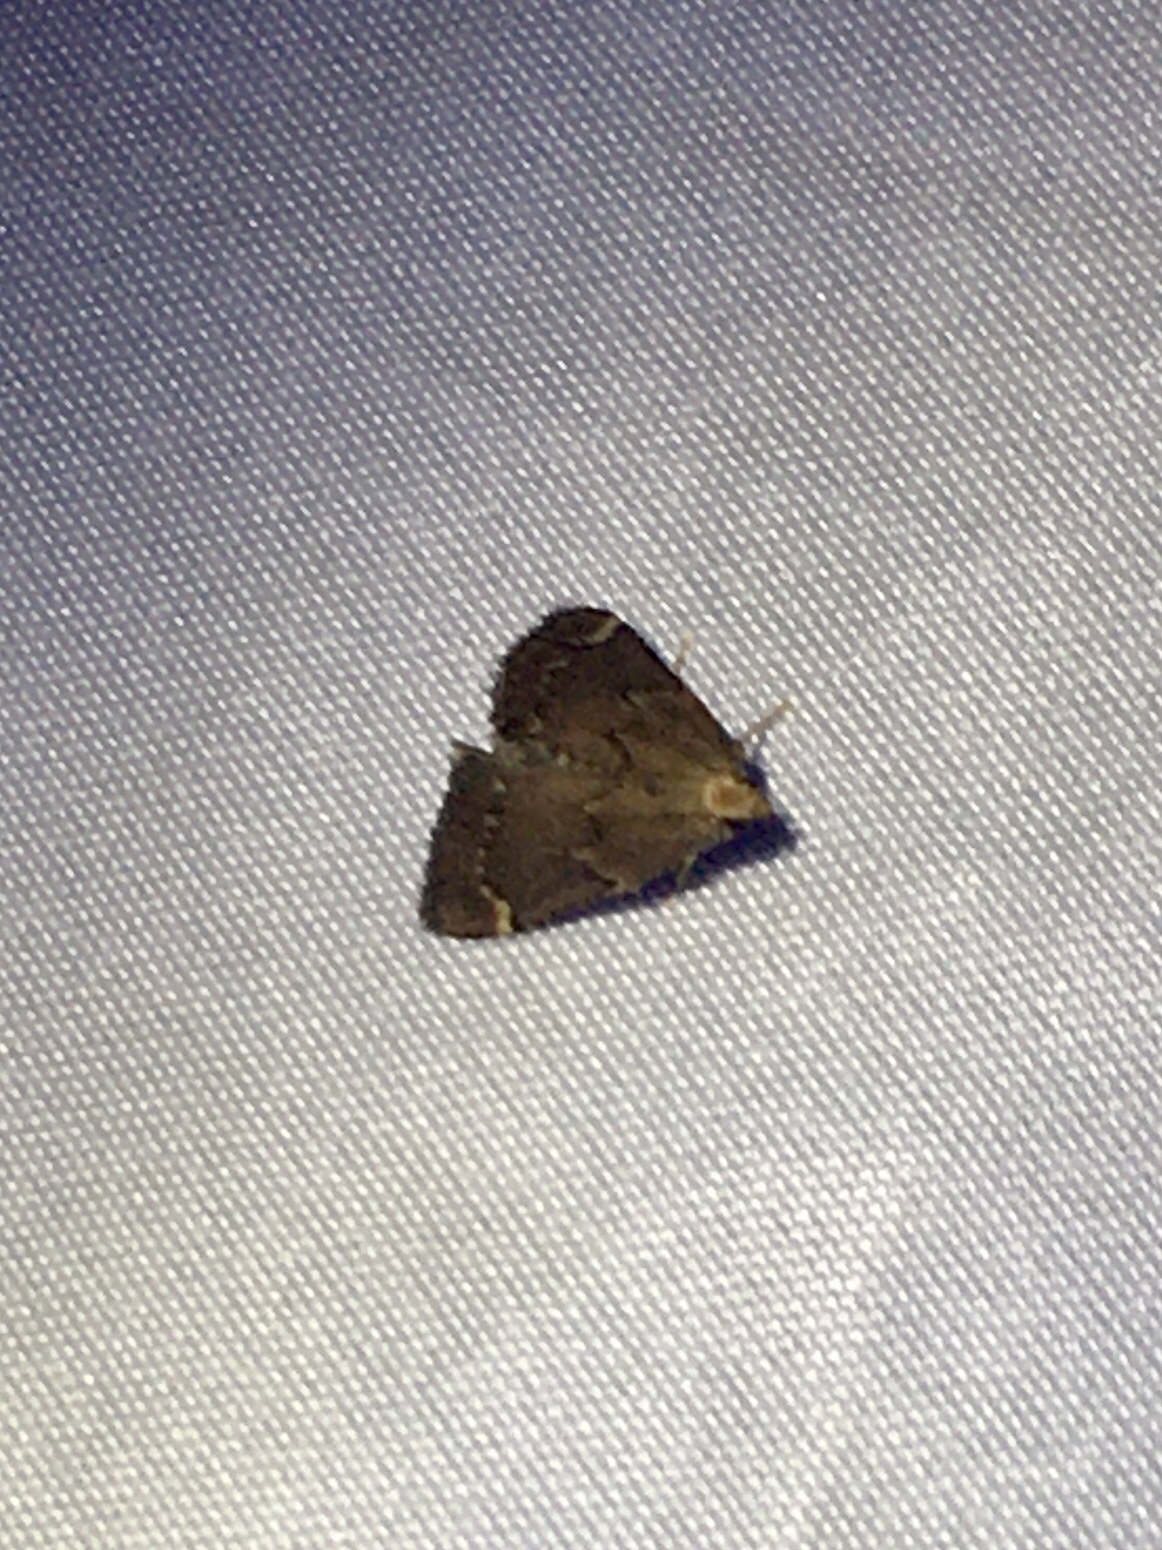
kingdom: Animalia
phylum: Arthropoda
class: Insecta
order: Lepidoptera
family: Pyralidae
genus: Hypsopygia
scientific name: Hypsopygia intermedialis
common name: Red-shawled moth
